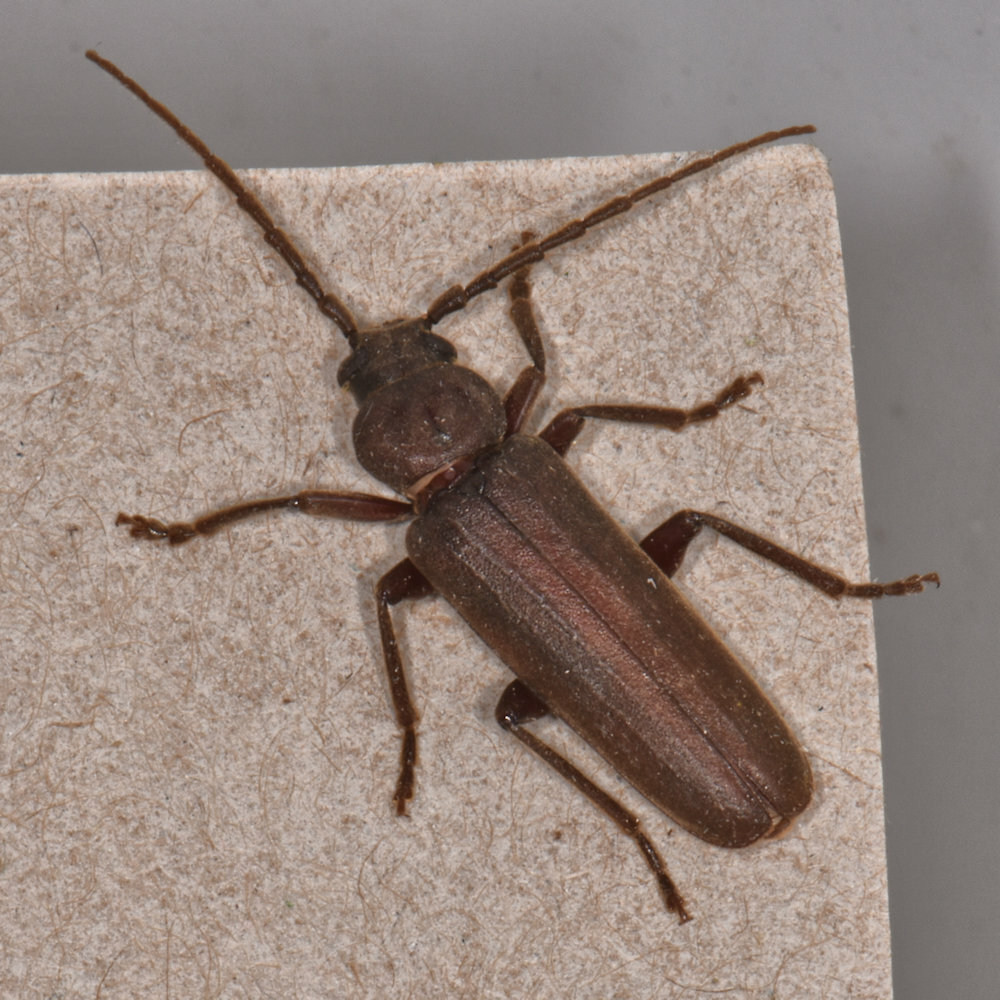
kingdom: Animalia
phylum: Arthropoda
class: Insecta
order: Coleoptera
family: Cerambycidae
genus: Arhopalus
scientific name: Arhopalus rusticus
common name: Rust pine borer
